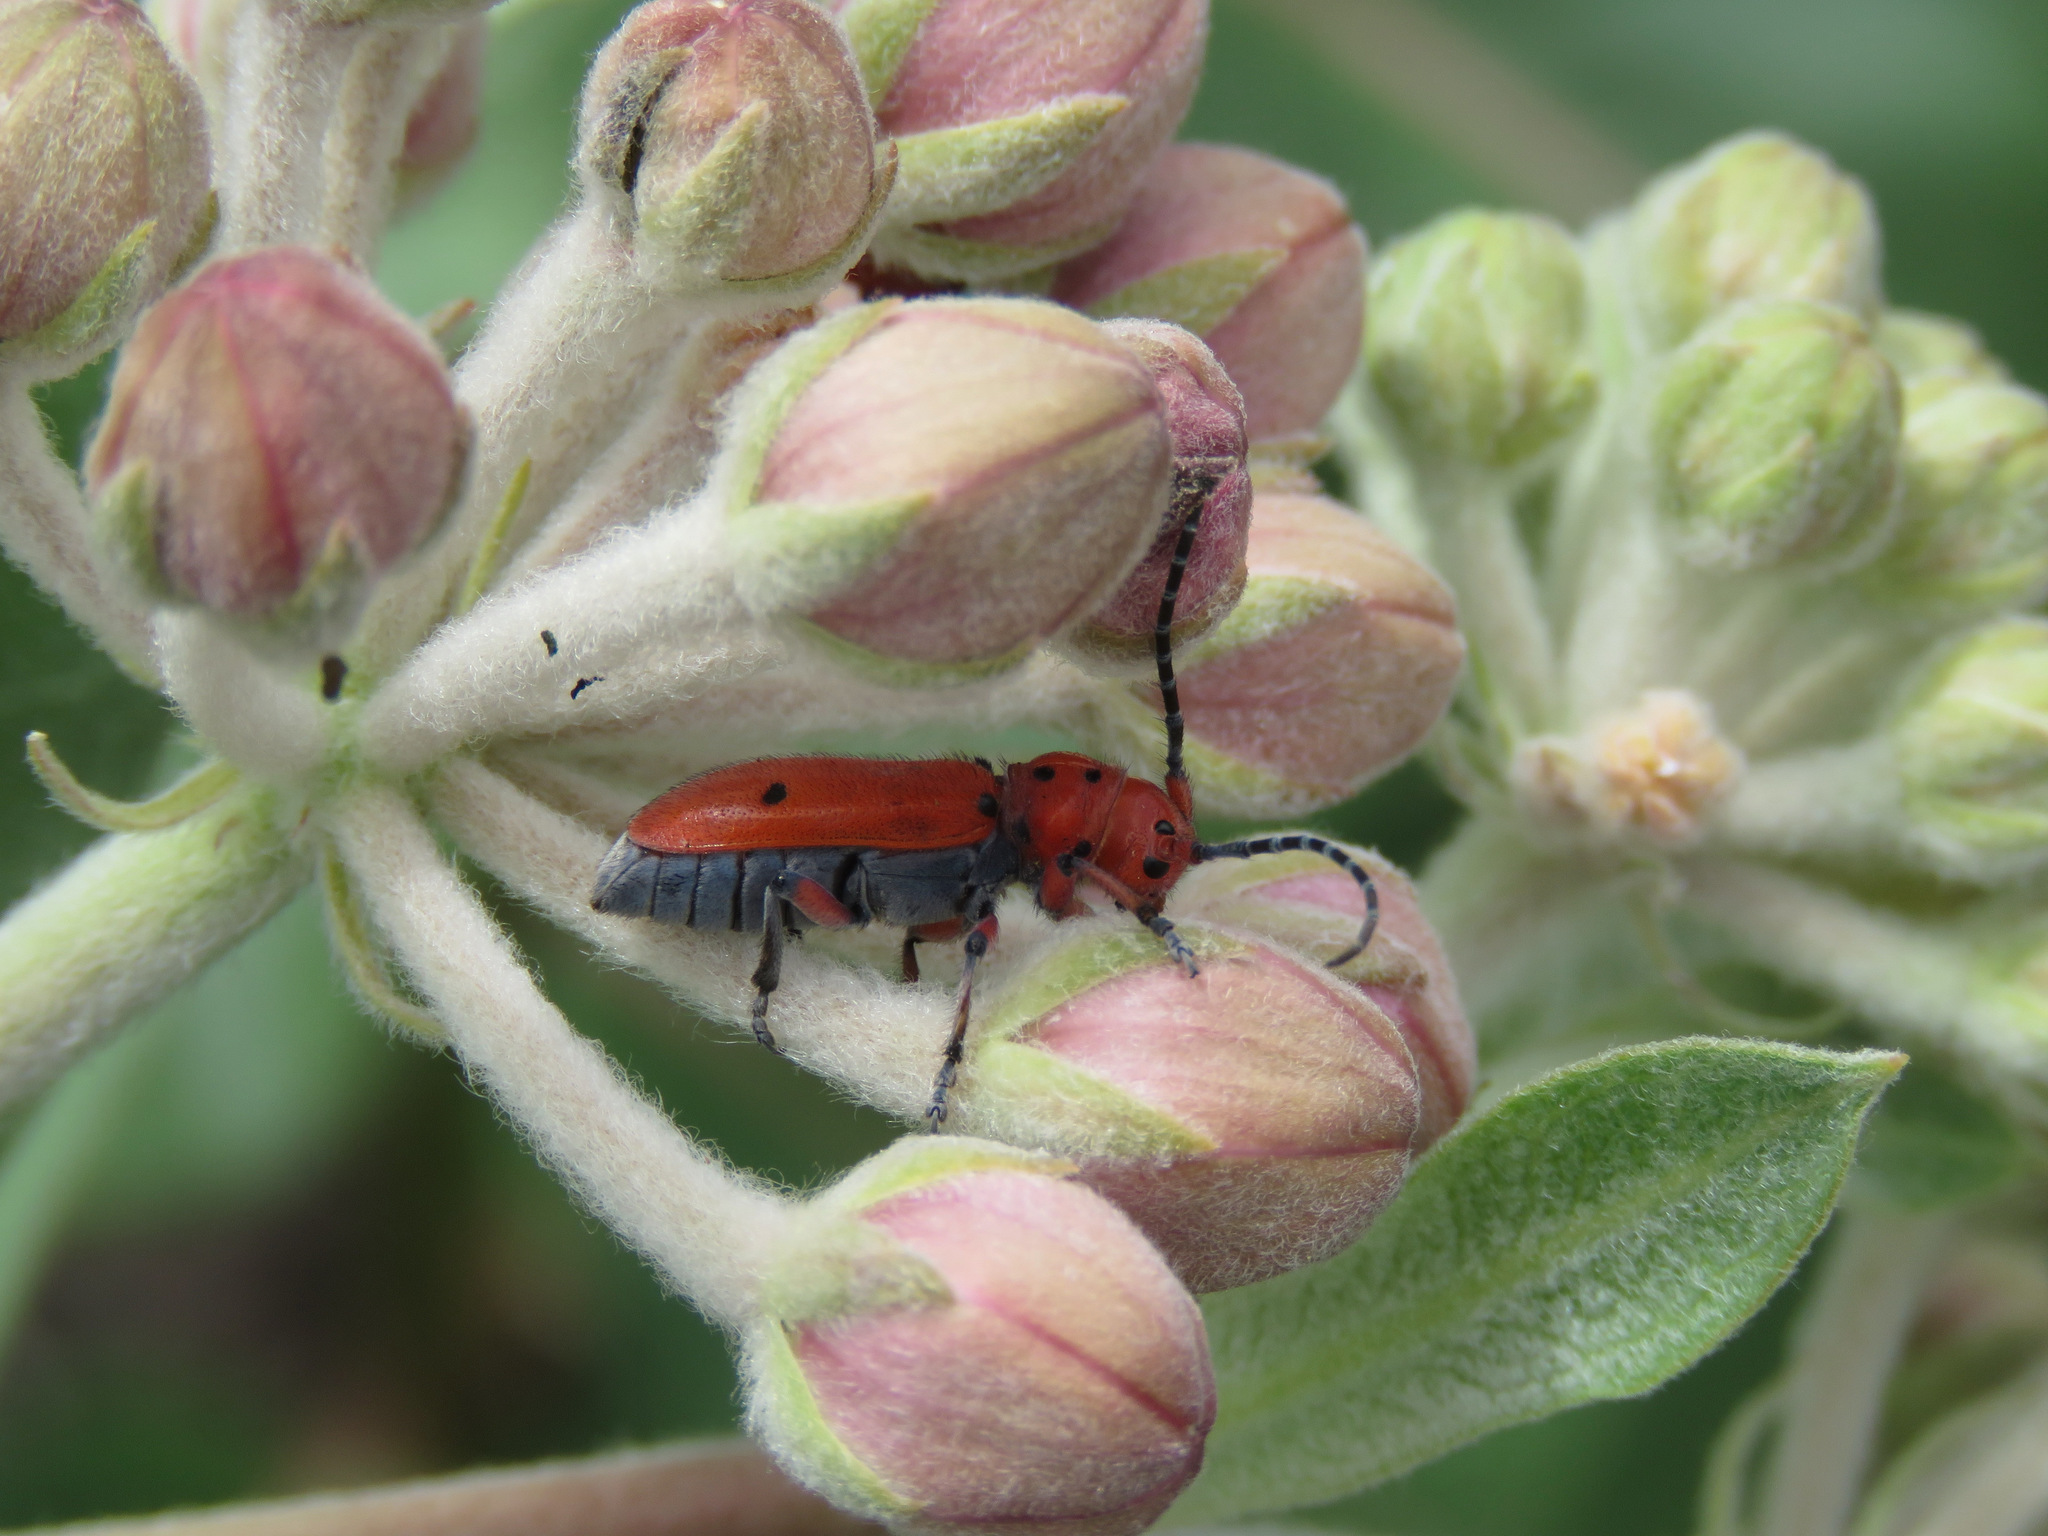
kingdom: Animalia
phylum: Arthropoda
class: Insecta
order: Coleoptera
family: Cerambycidae
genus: Tetraopes
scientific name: Tetraopes femoratus
